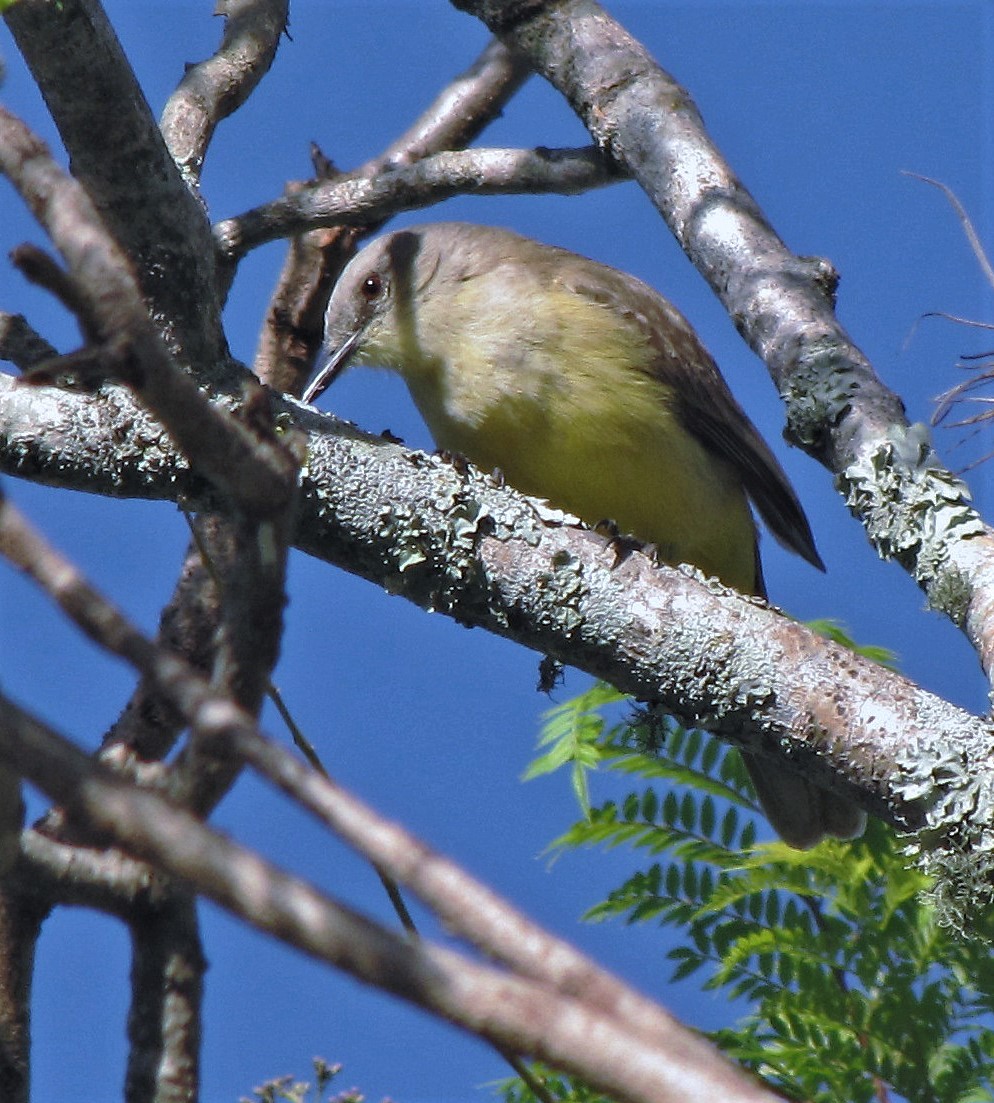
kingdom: Animalia
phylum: Chordata
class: Aves
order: Passeriformes
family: Tyrannidae
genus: Machetornis
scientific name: Machetornis rixosa
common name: Cattle tyrant
